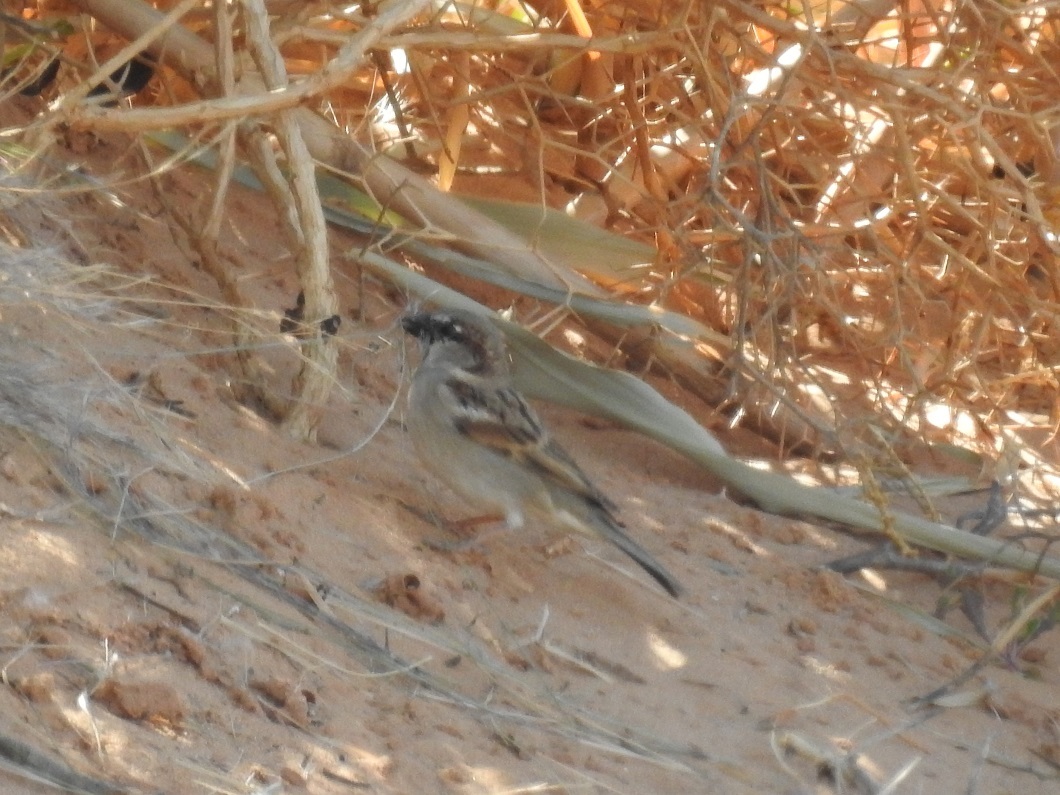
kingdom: Animalia
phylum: Chordata
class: Aves
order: Passeriformes
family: Passeridae
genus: Passer
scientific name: Passer domesticus
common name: House sparrow
